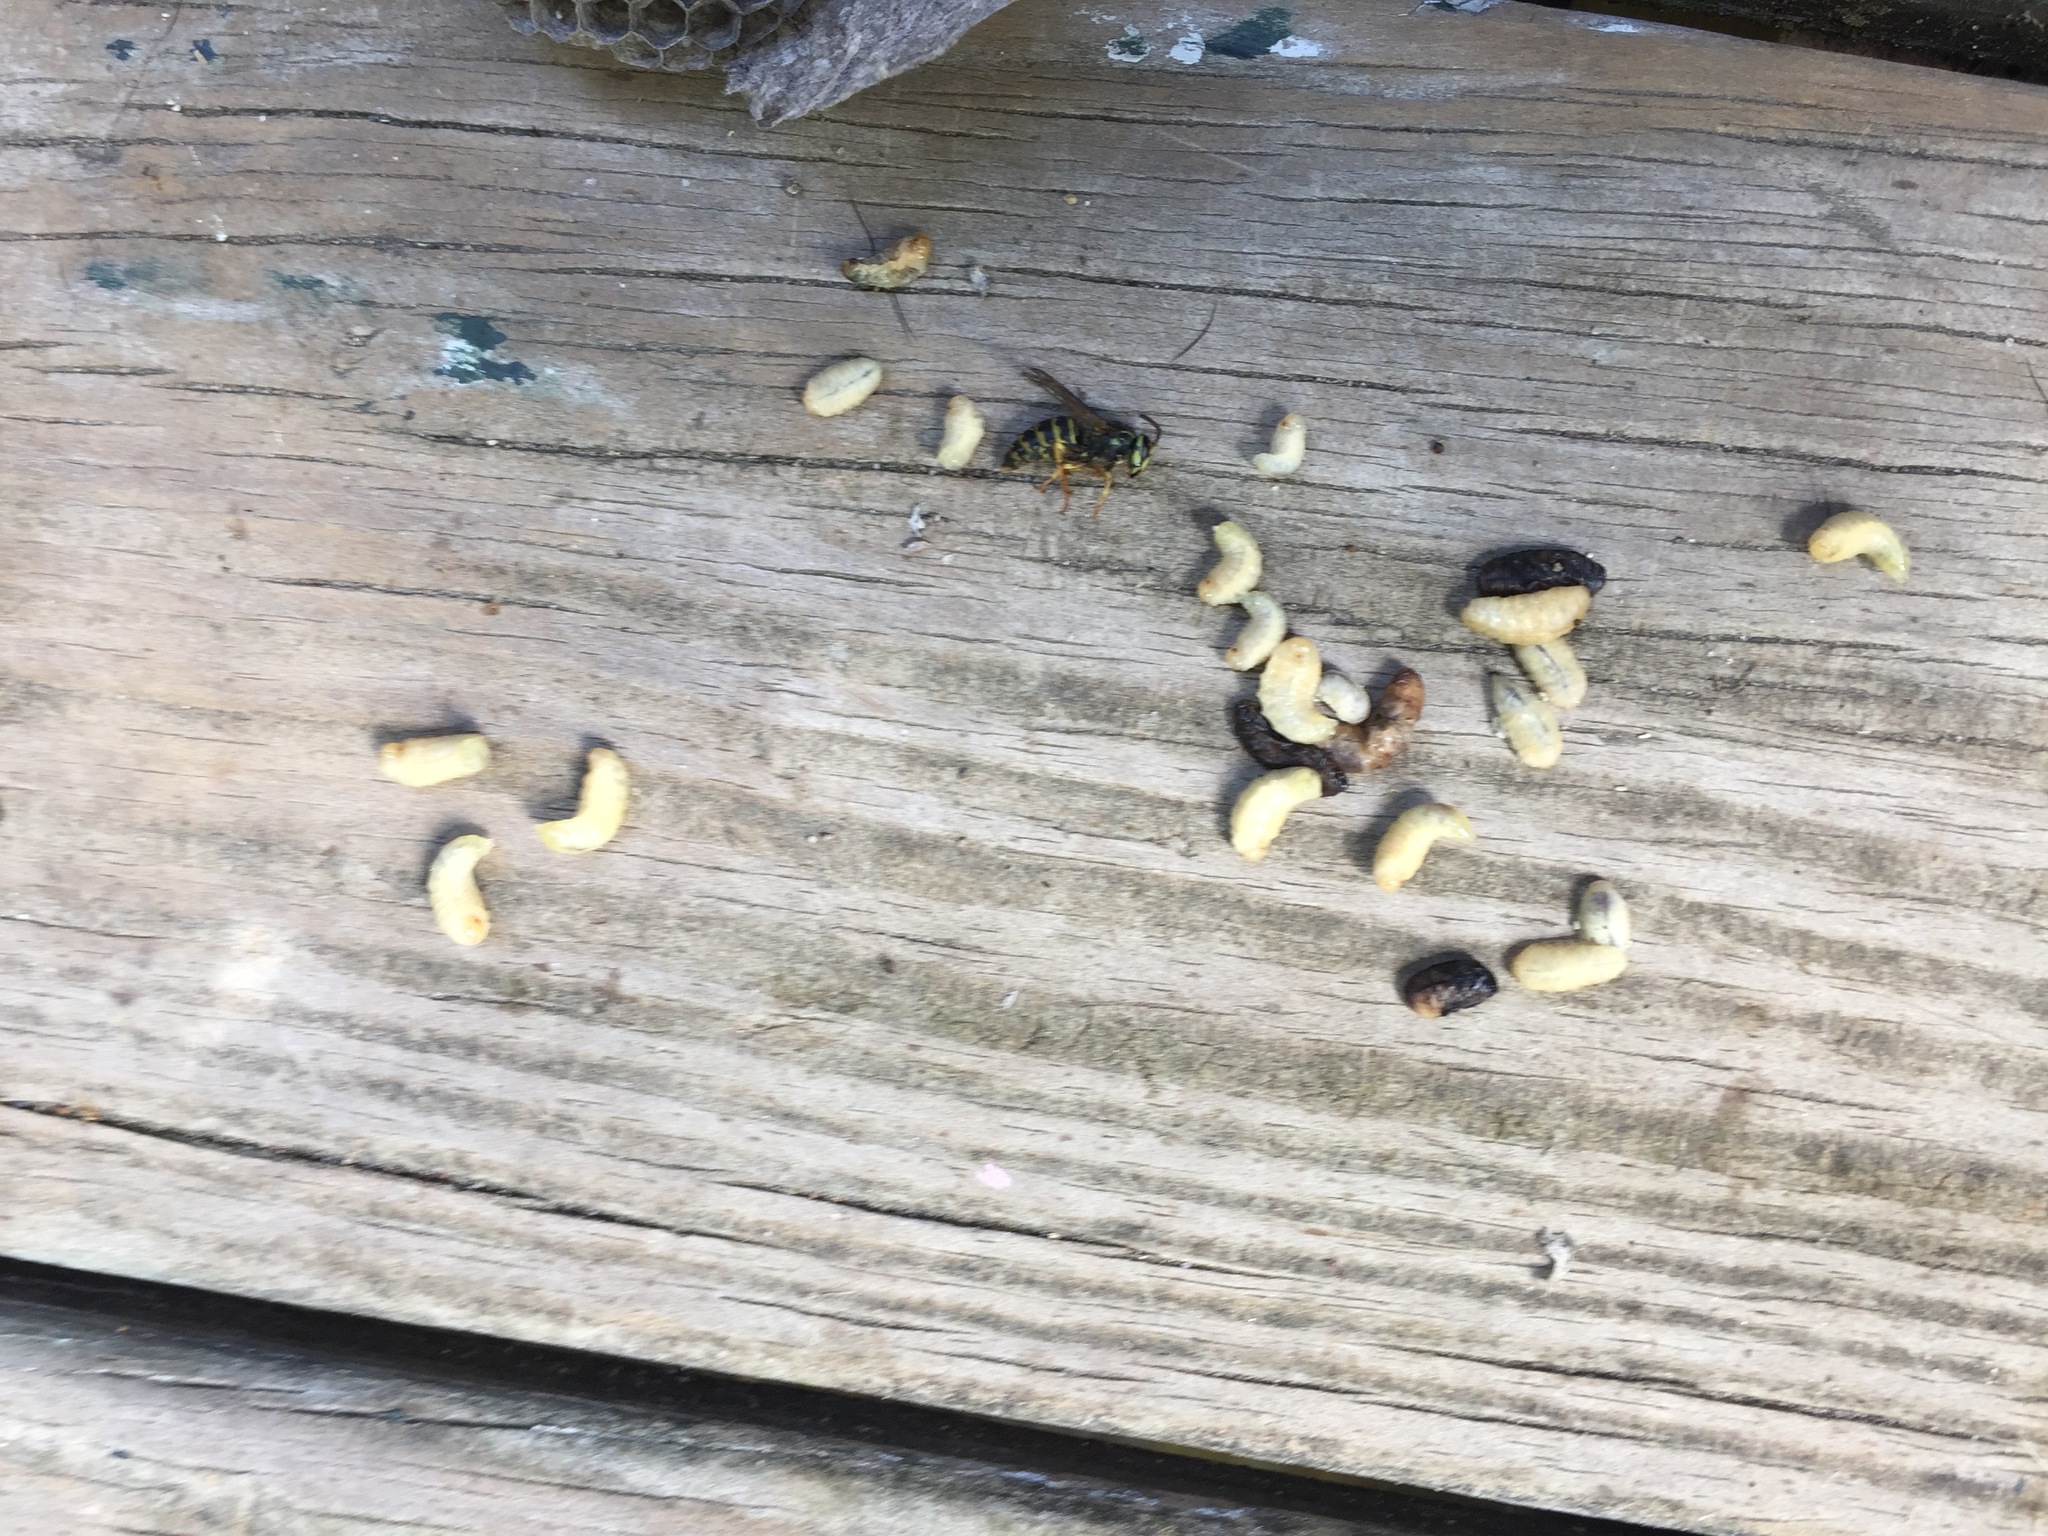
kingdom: Animalia
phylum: Arthropoda
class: Insecta
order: Hymenoptera
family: Vespidae
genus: Dolichovespula
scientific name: Dolichovespula
